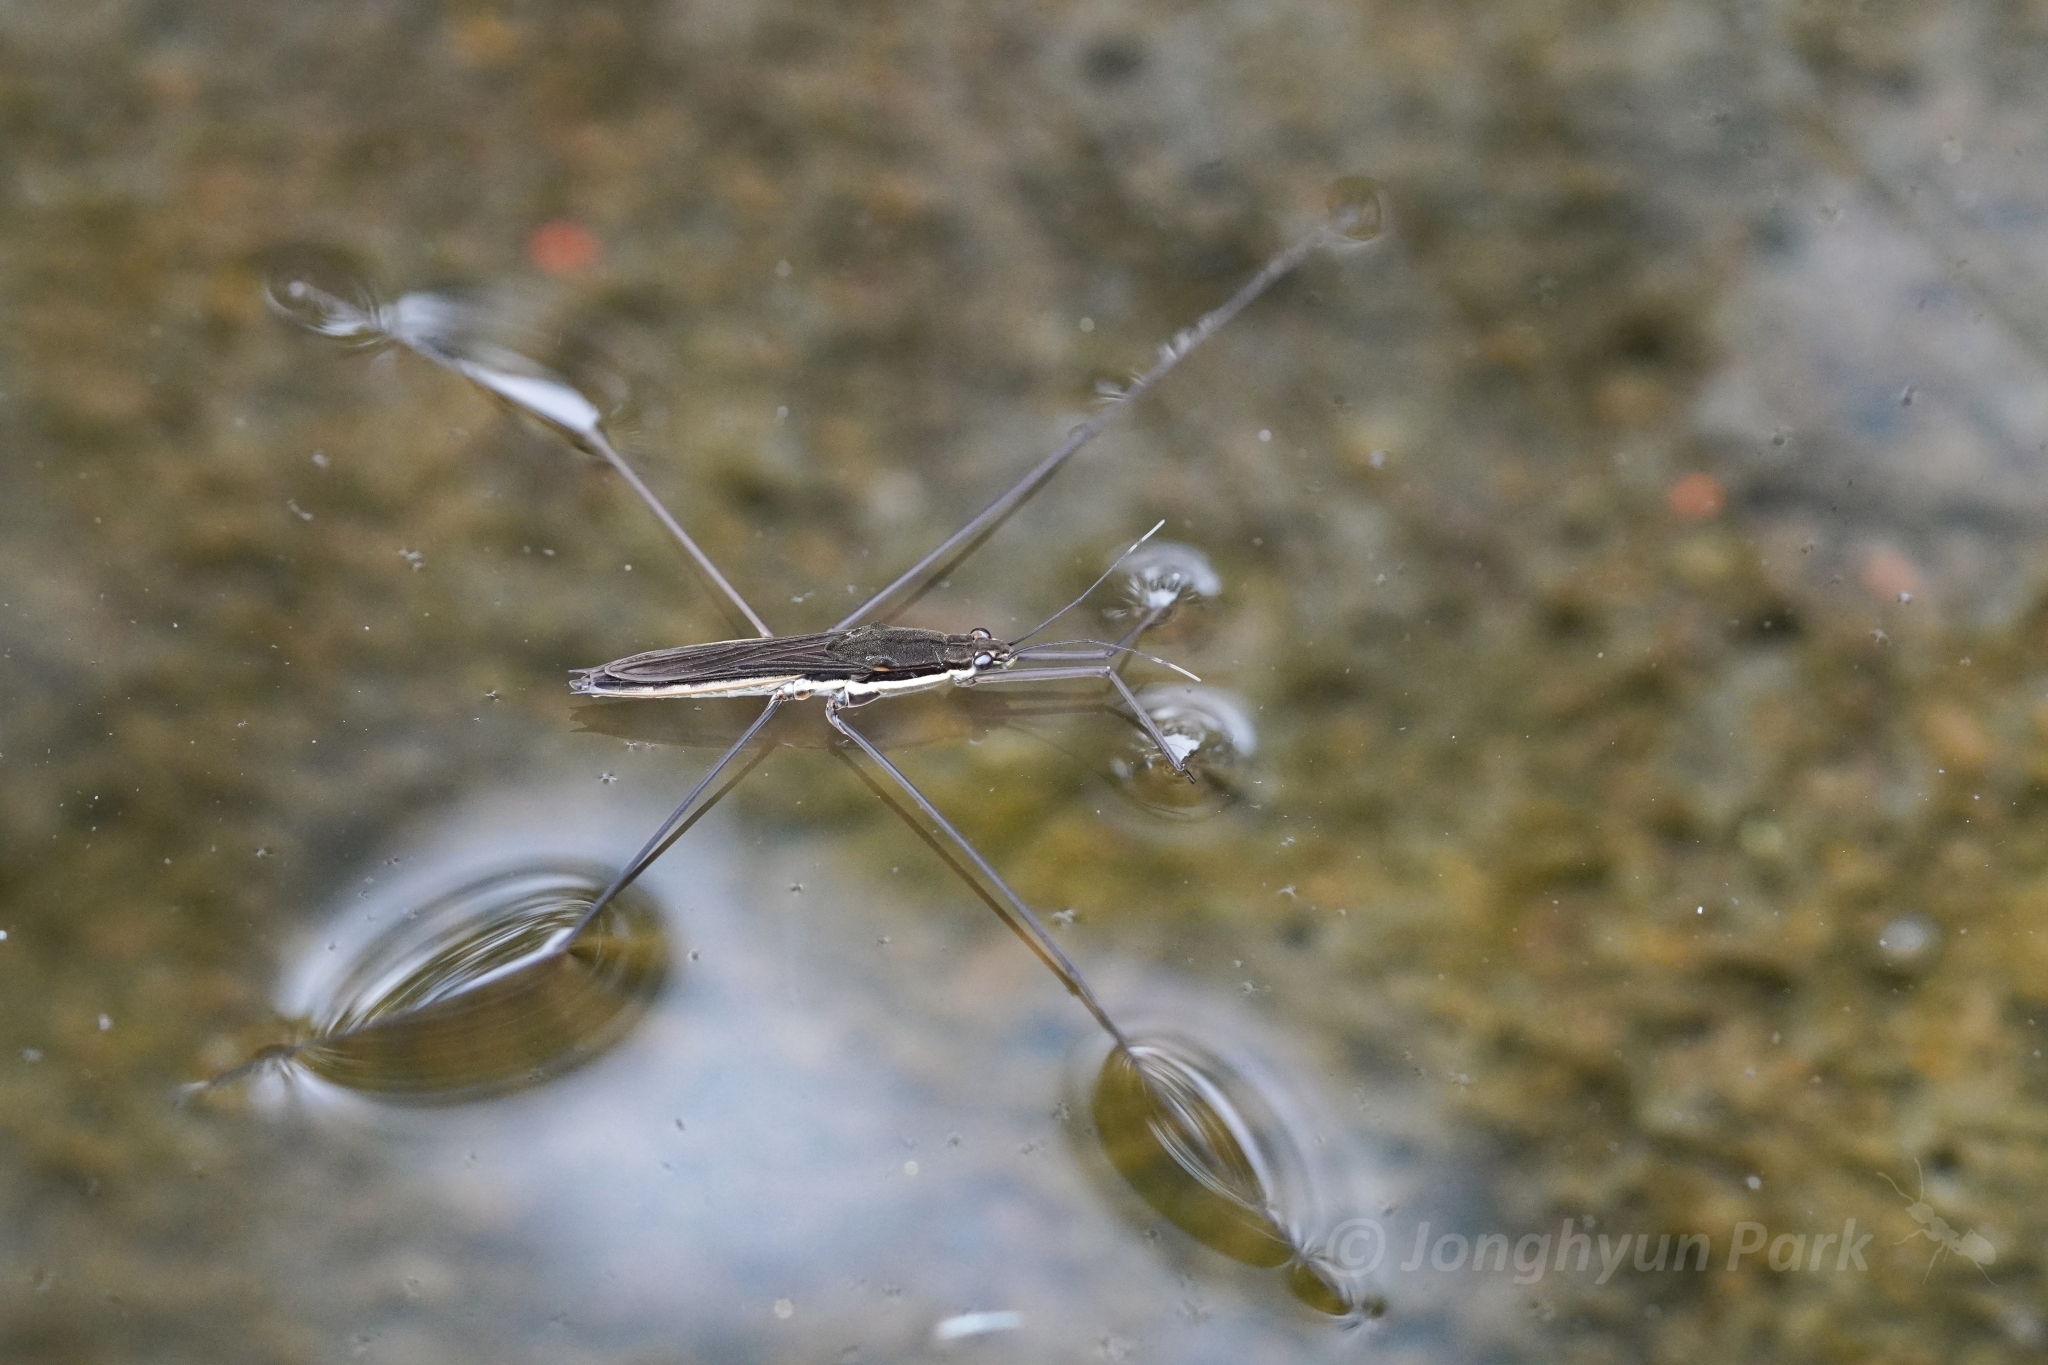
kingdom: Animalia
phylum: Arthropoda
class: Insecta
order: Hemiptera
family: Gerridae
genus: Aquarius
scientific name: Aquarius elongatus
